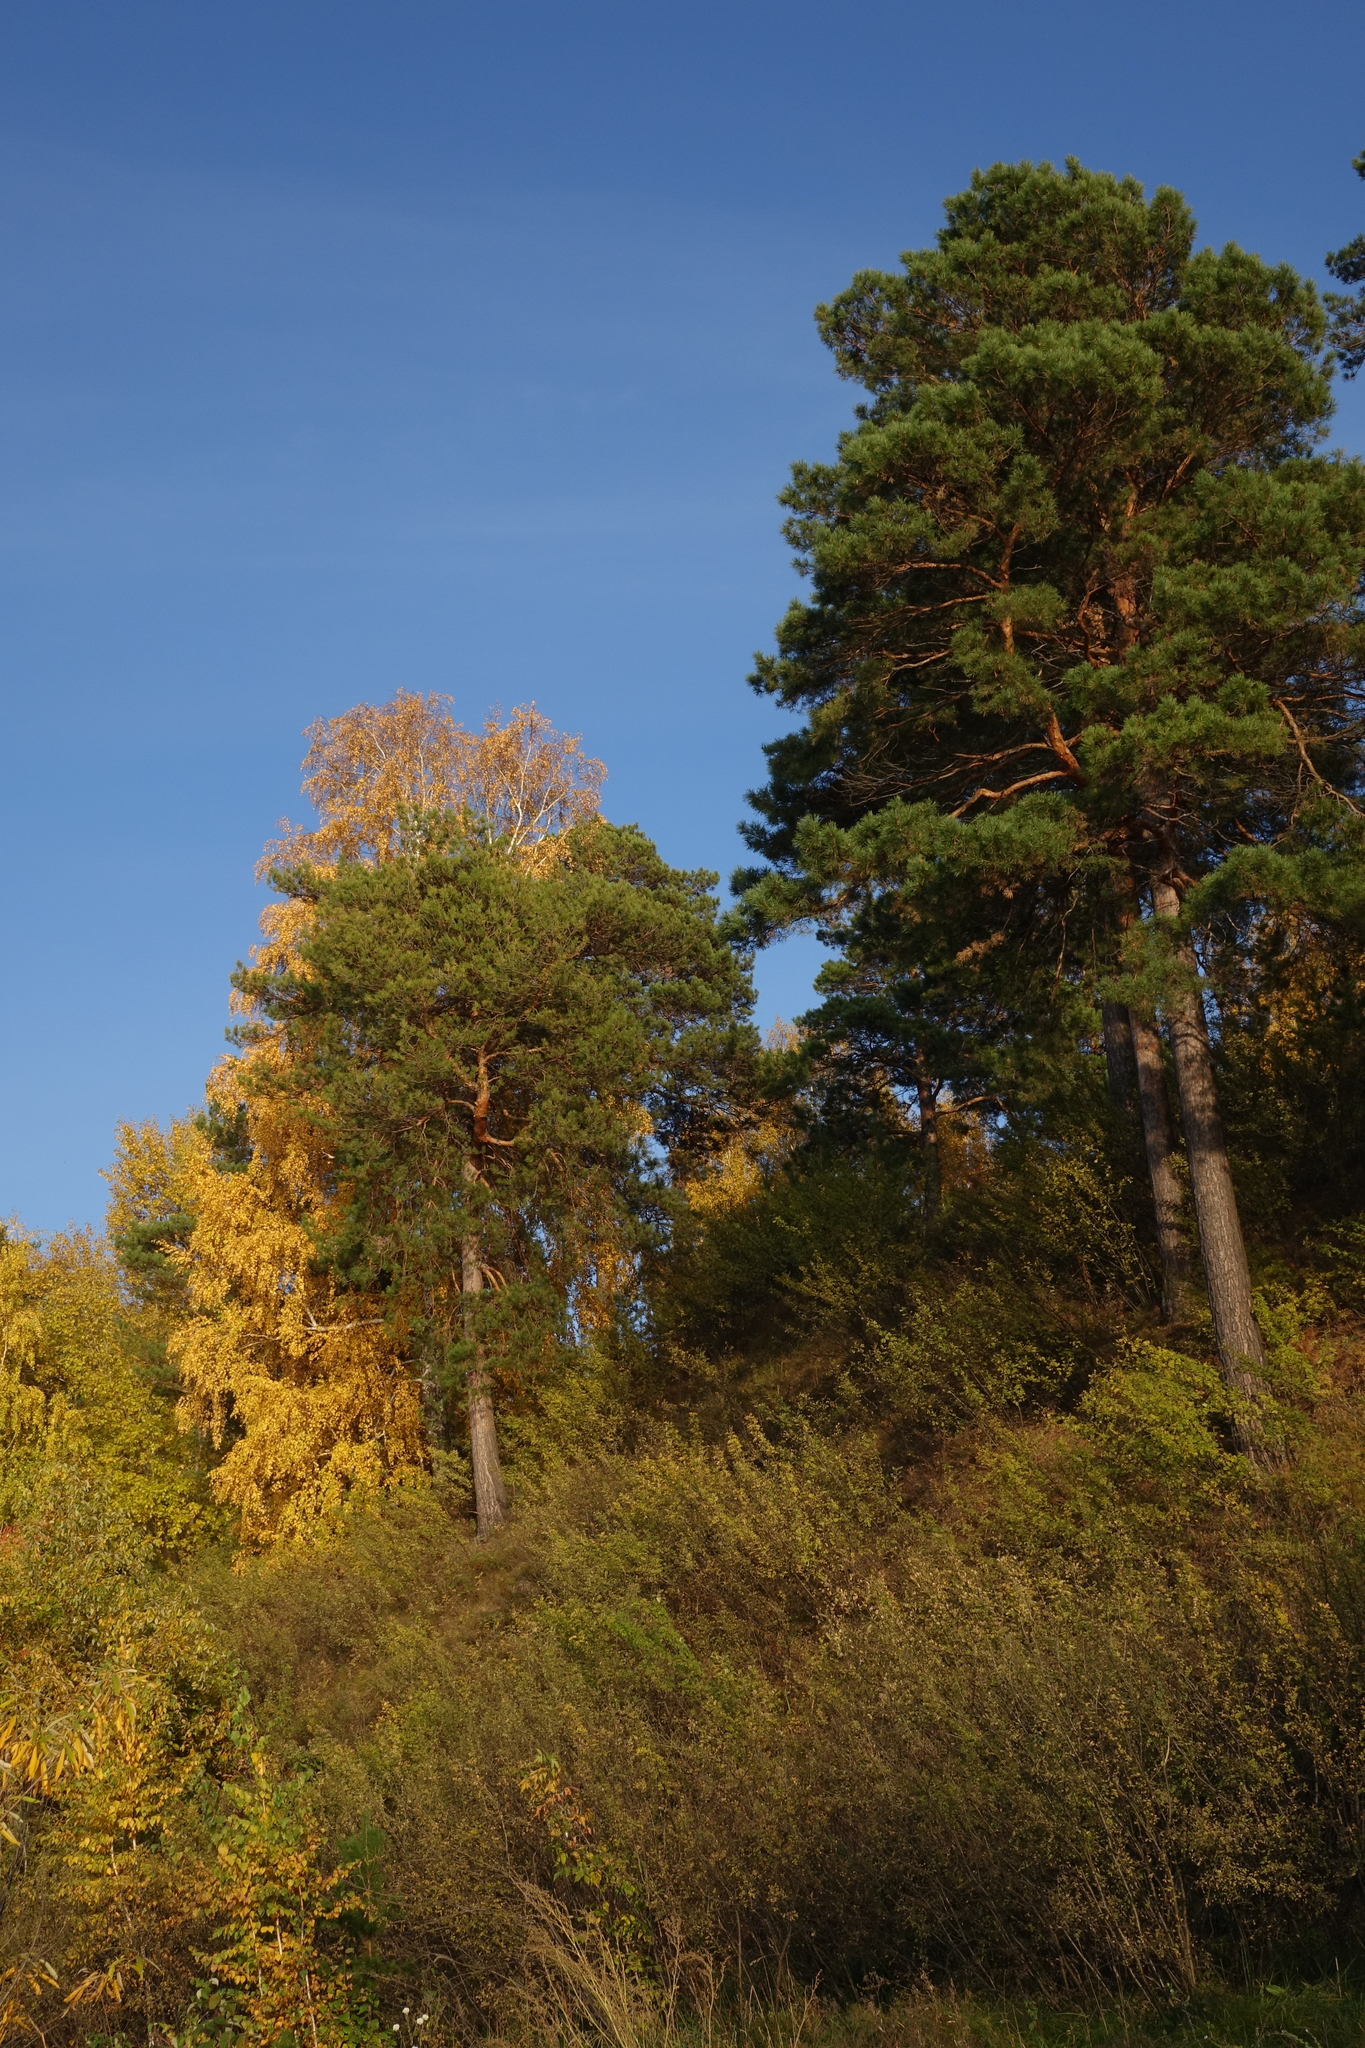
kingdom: Plantae
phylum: Tracheophyta
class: Magnoliopsida
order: Fabales
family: Fabaceae
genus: Caragana
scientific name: Caragana arborescens
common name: Siberian peashrub
